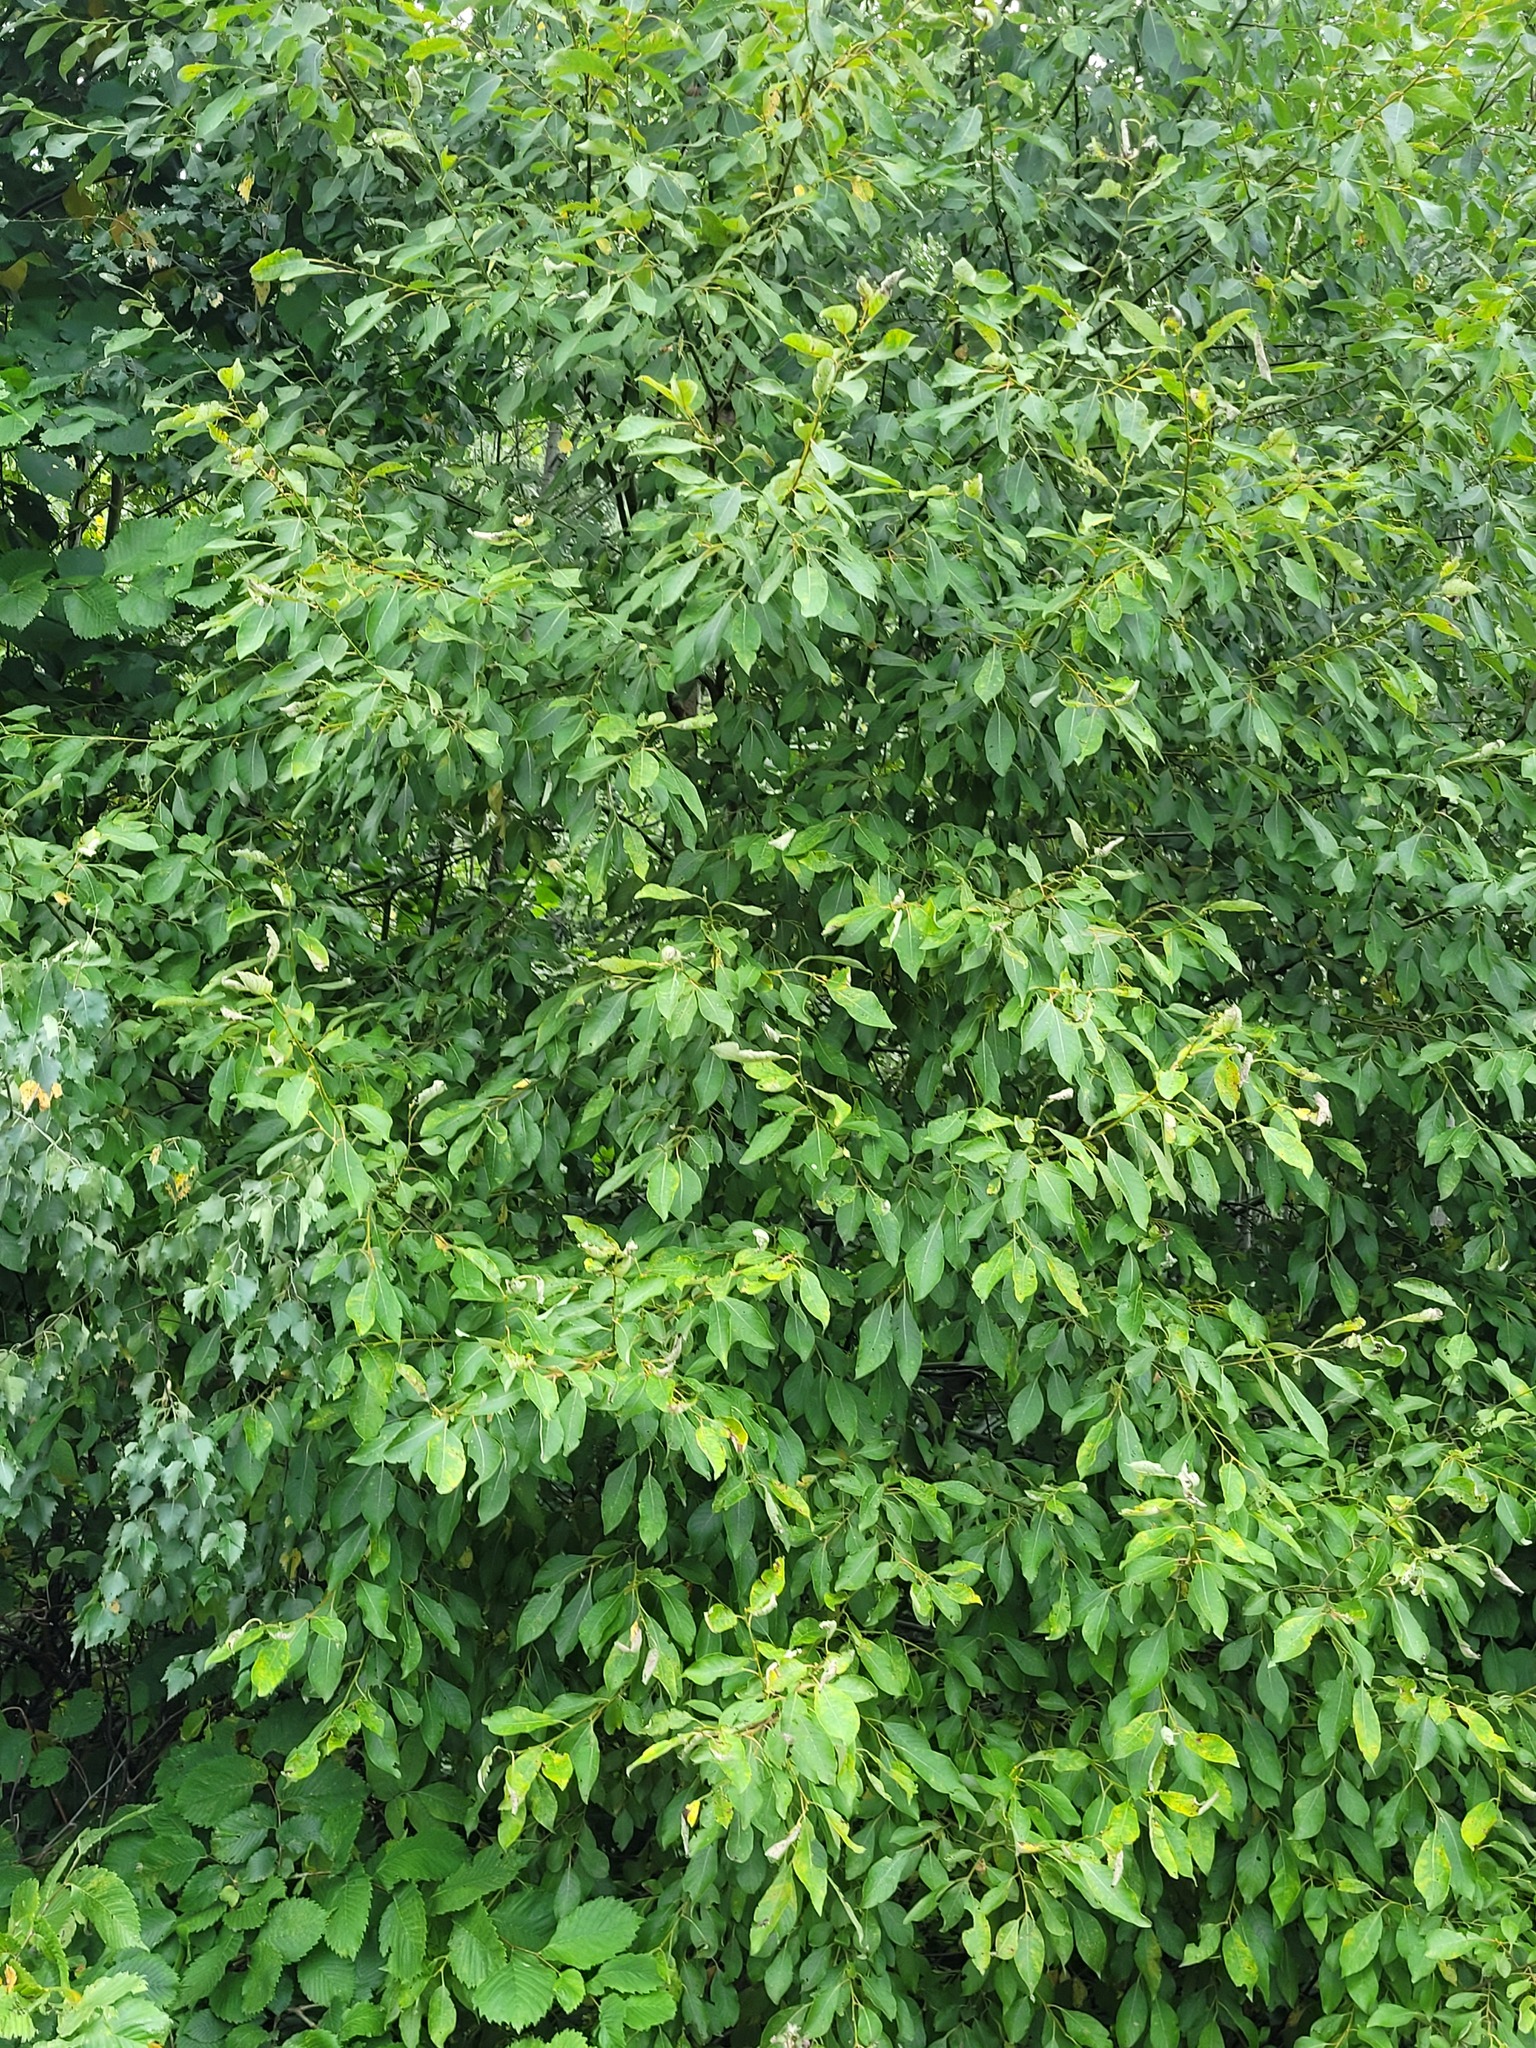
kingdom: Plantae
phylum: Tracheophyta
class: Magnoliopsida
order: Malpighiales
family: Salicaceae
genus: Salix
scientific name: Salix caprea
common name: Goat willow
